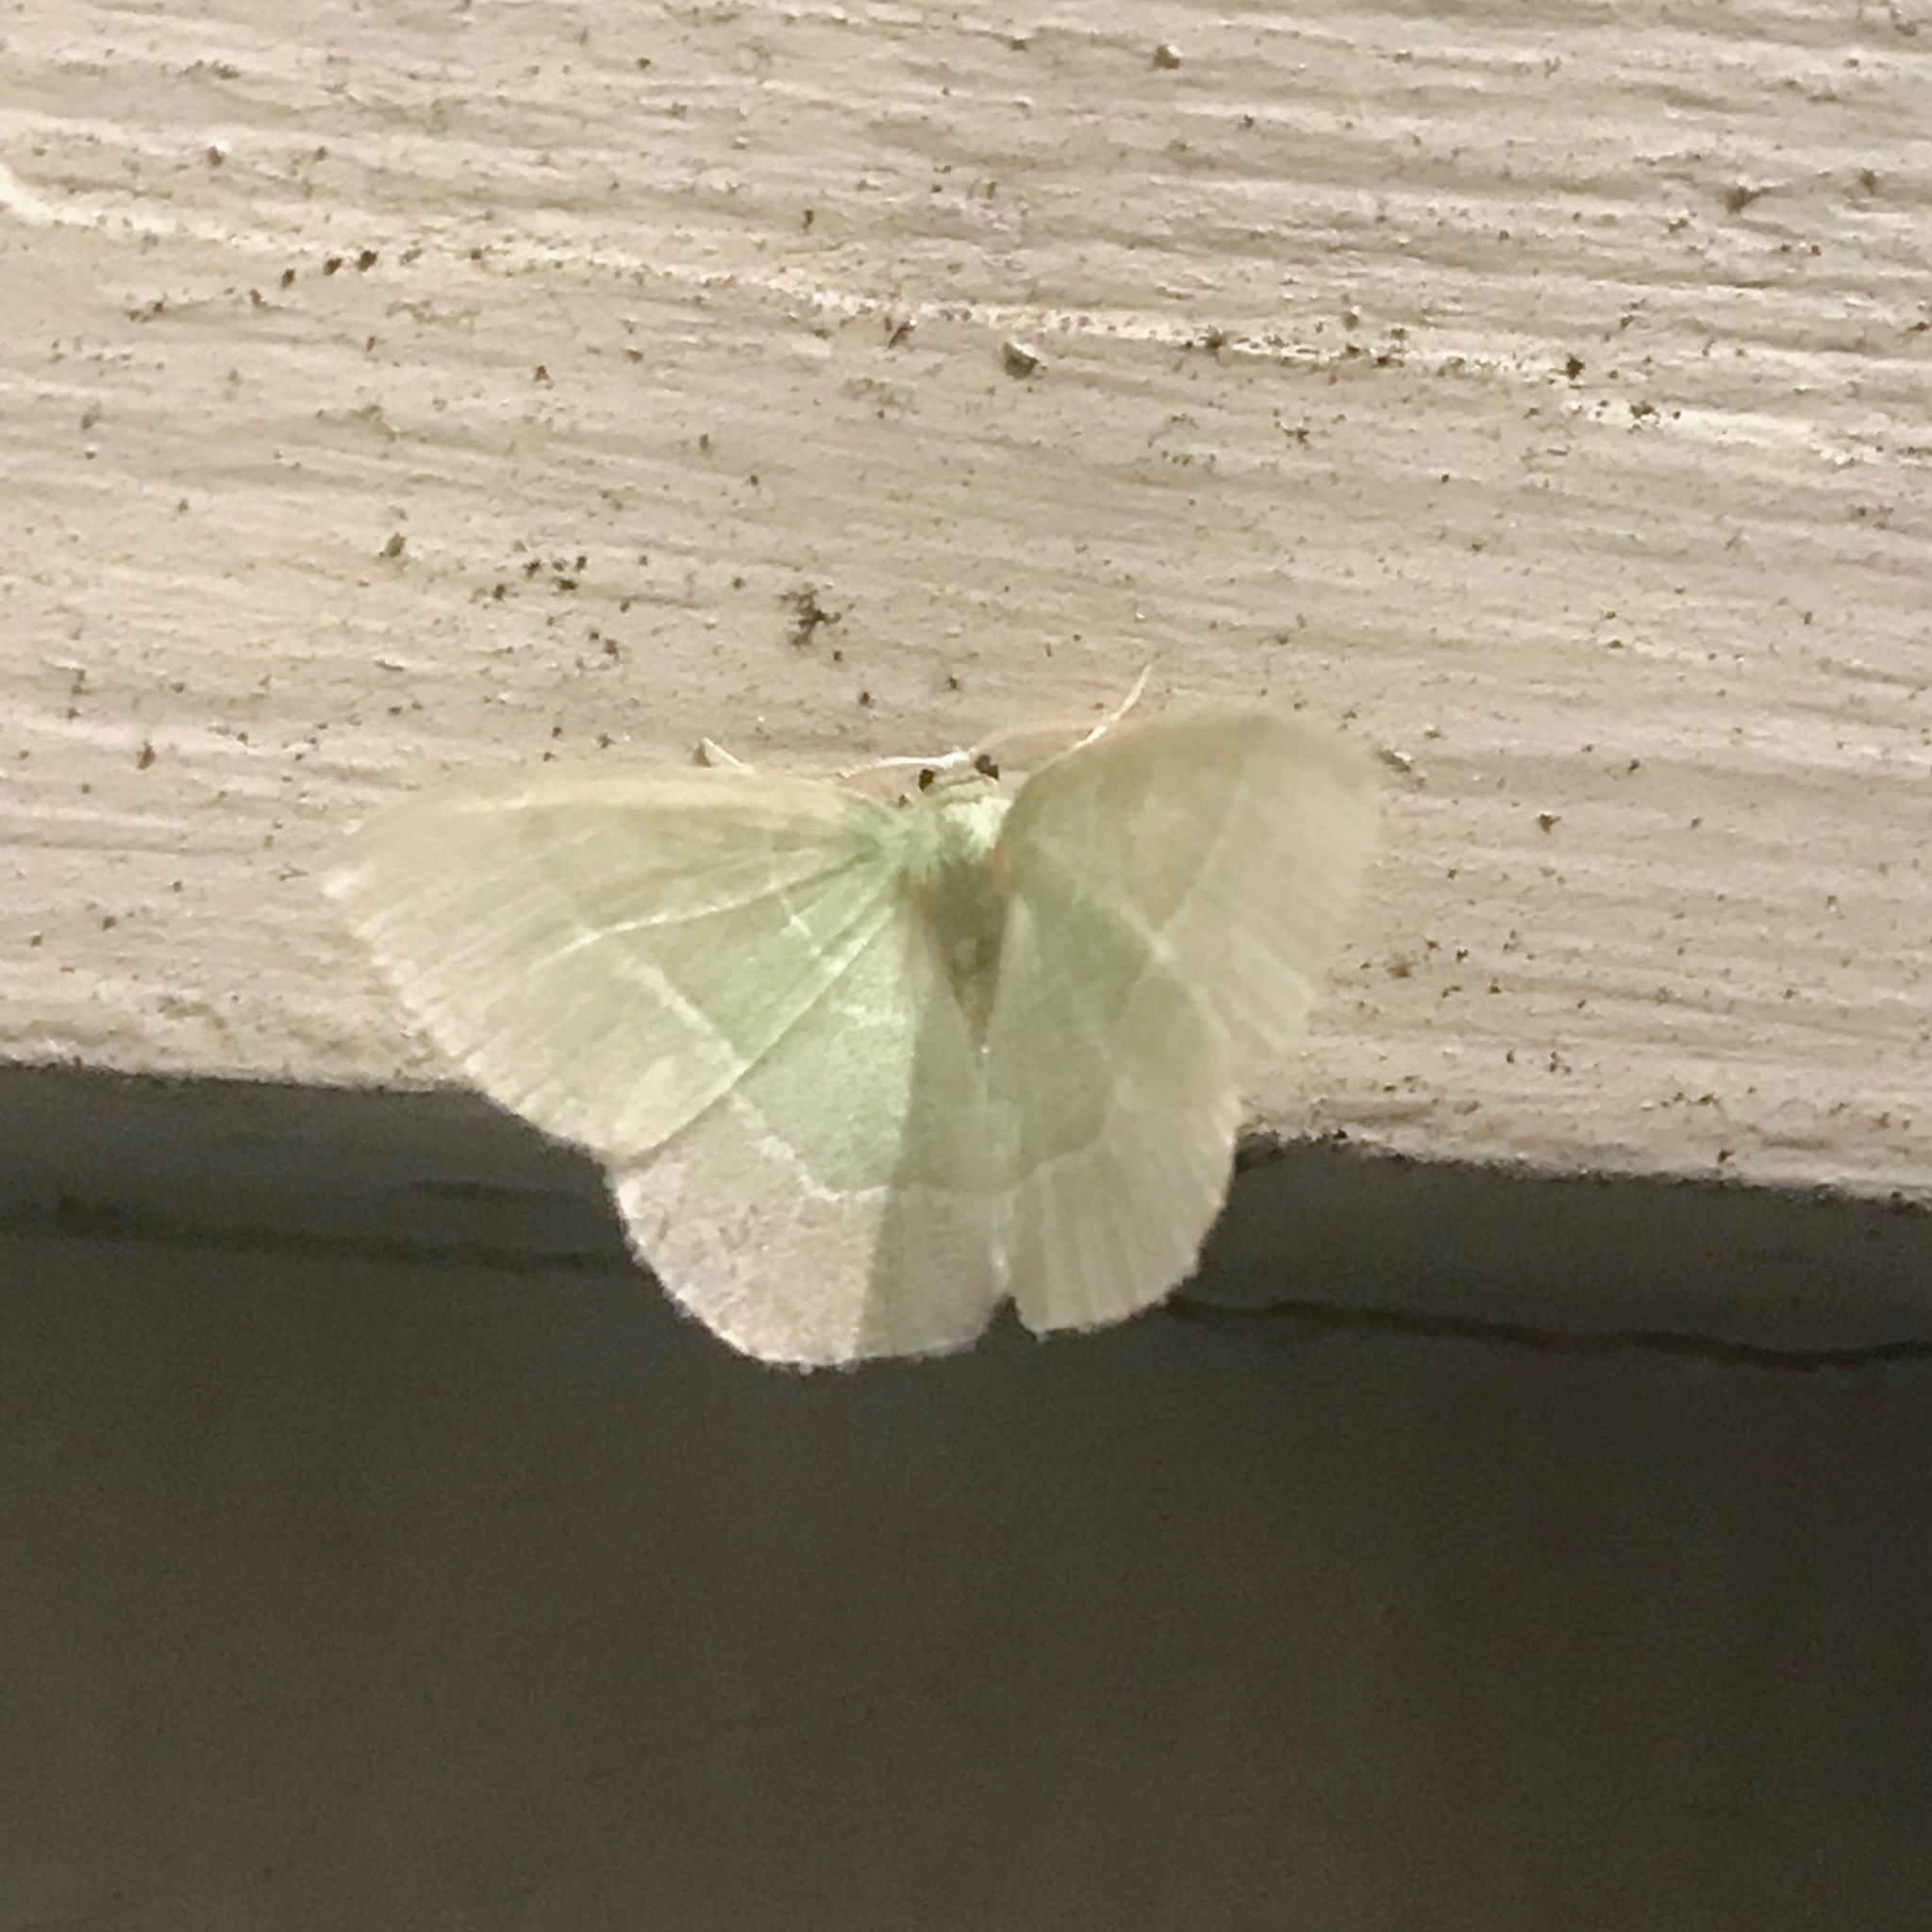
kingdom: Animalia
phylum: Arthropoda
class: Insecta
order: Lepidoptera
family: Geometridae
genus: Nemoria
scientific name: Nemoria mimosaria
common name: White-fringed emerald
